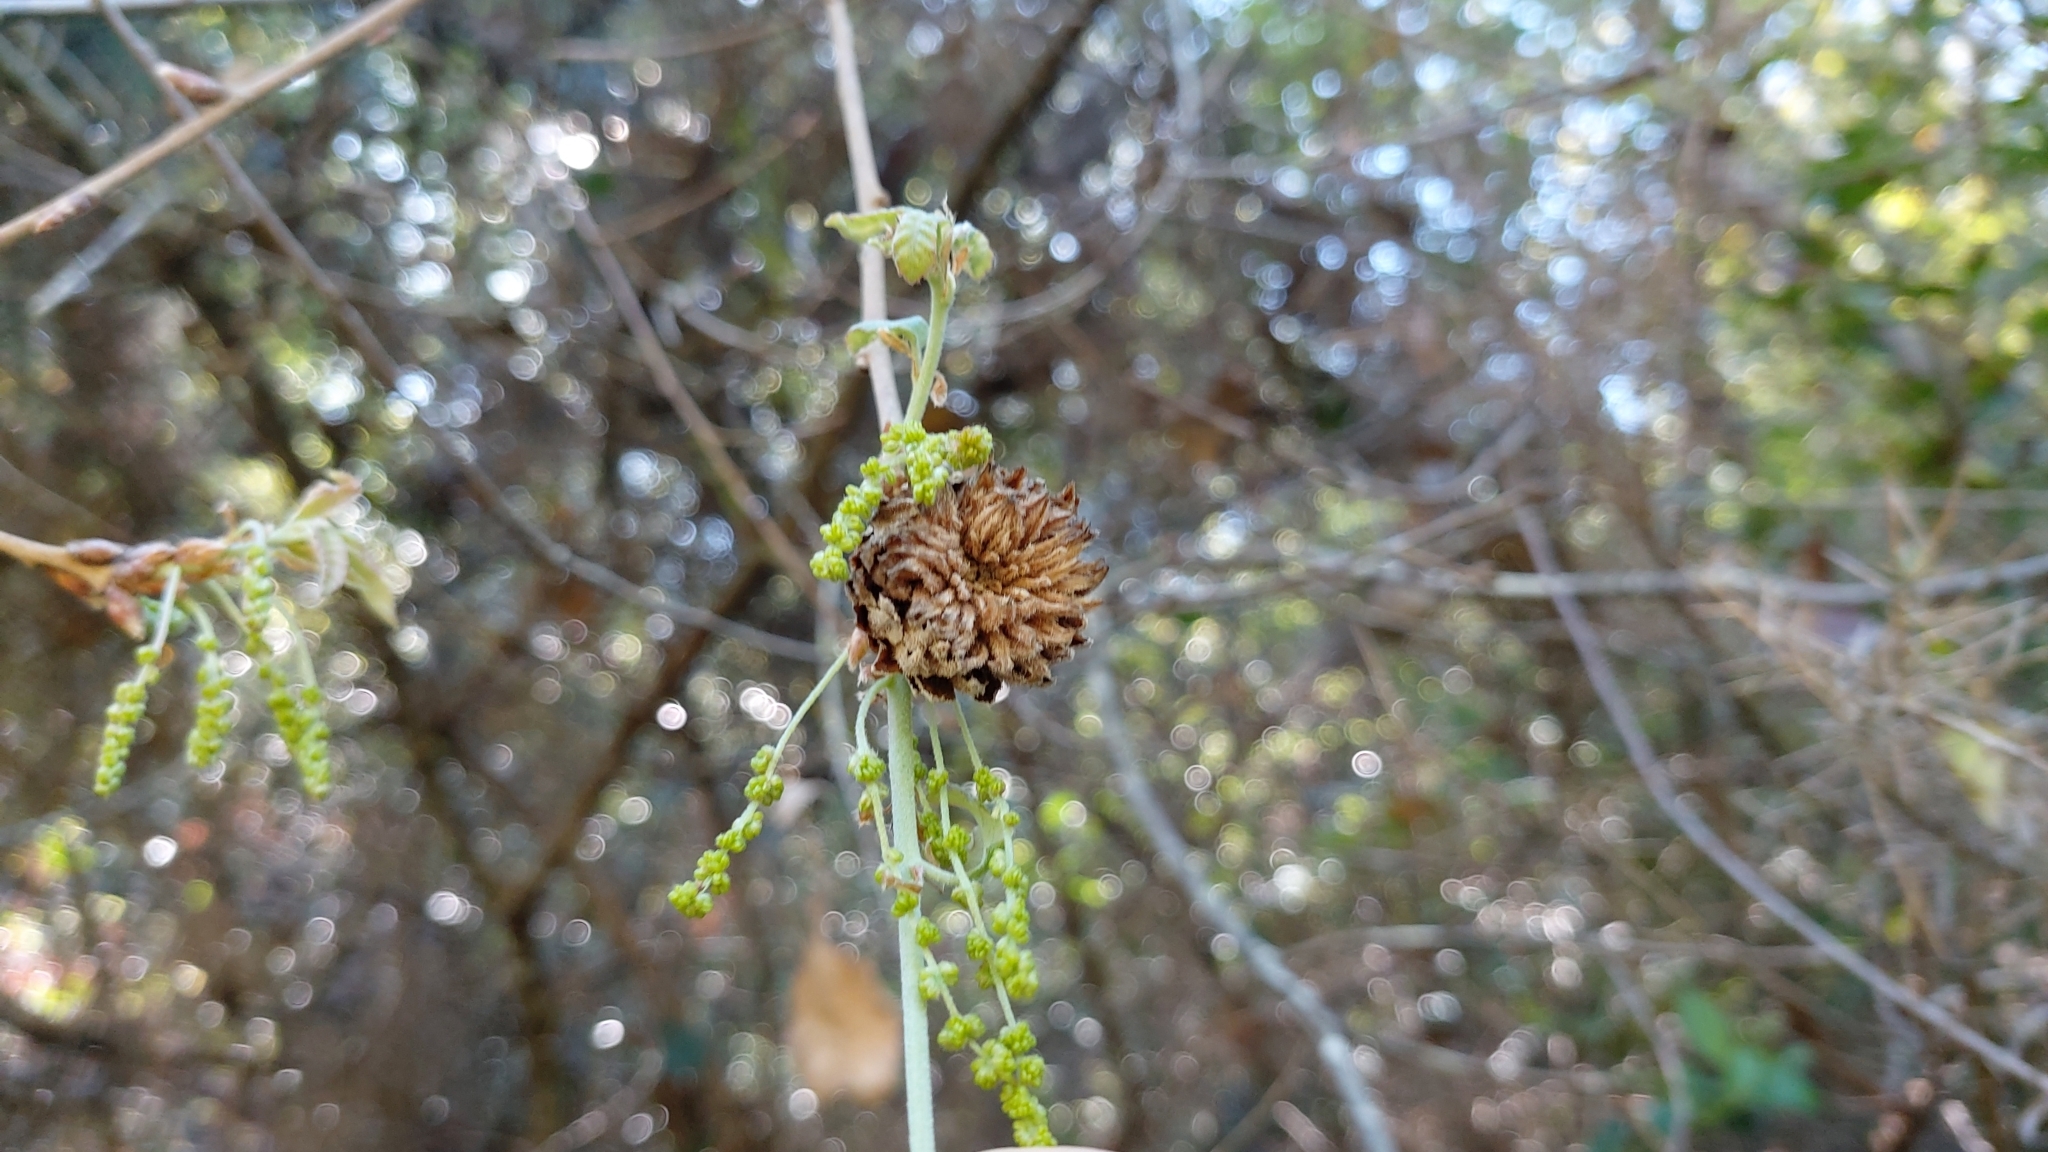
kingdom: Animalia
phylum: Arthropoda
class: Insecta
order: Hymenoptera
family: Cynipidae
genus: Andricus
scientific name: Andricus foecundatrix
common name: Artichoke gall
